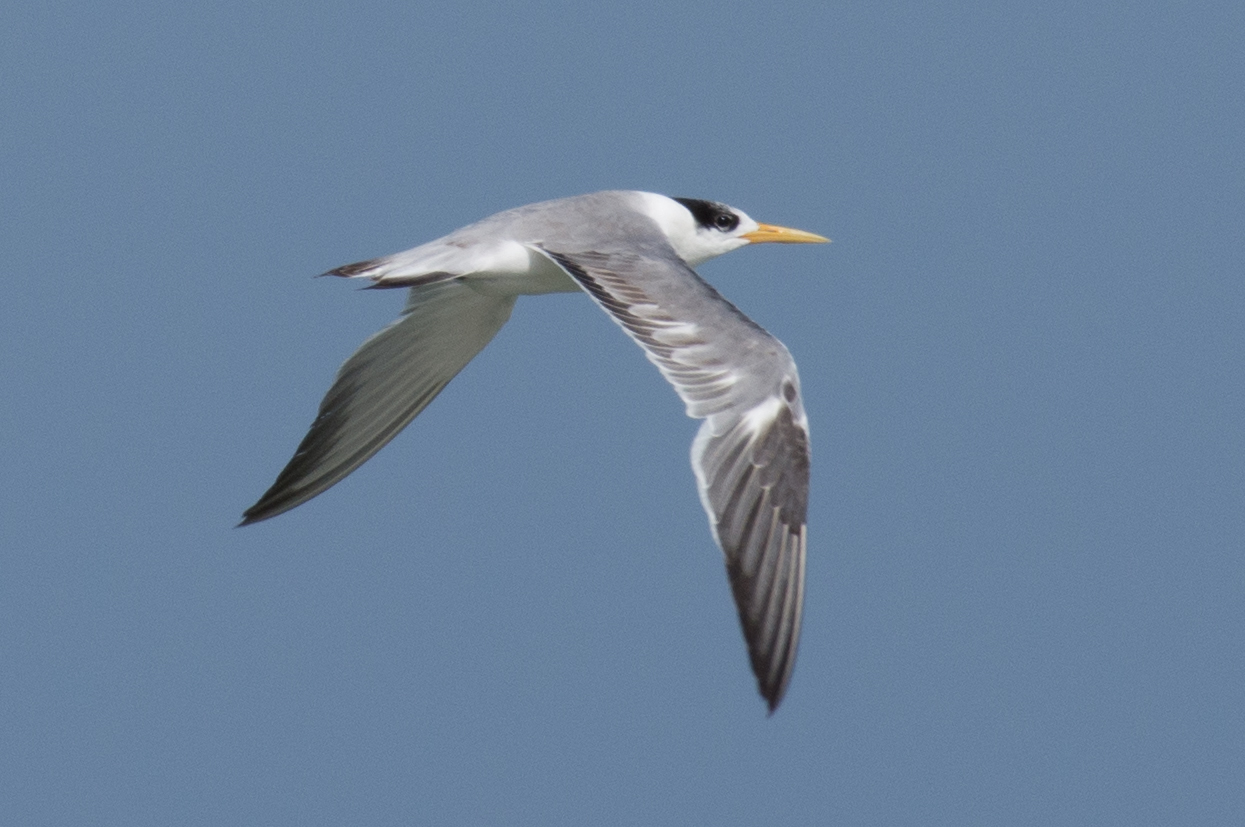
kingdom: Animalia
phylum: Chordata
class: Aves
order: Charadriiformes
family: Laridae
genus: Thalasseus
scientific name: Thalasseus bergii
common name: Greater crested tern
